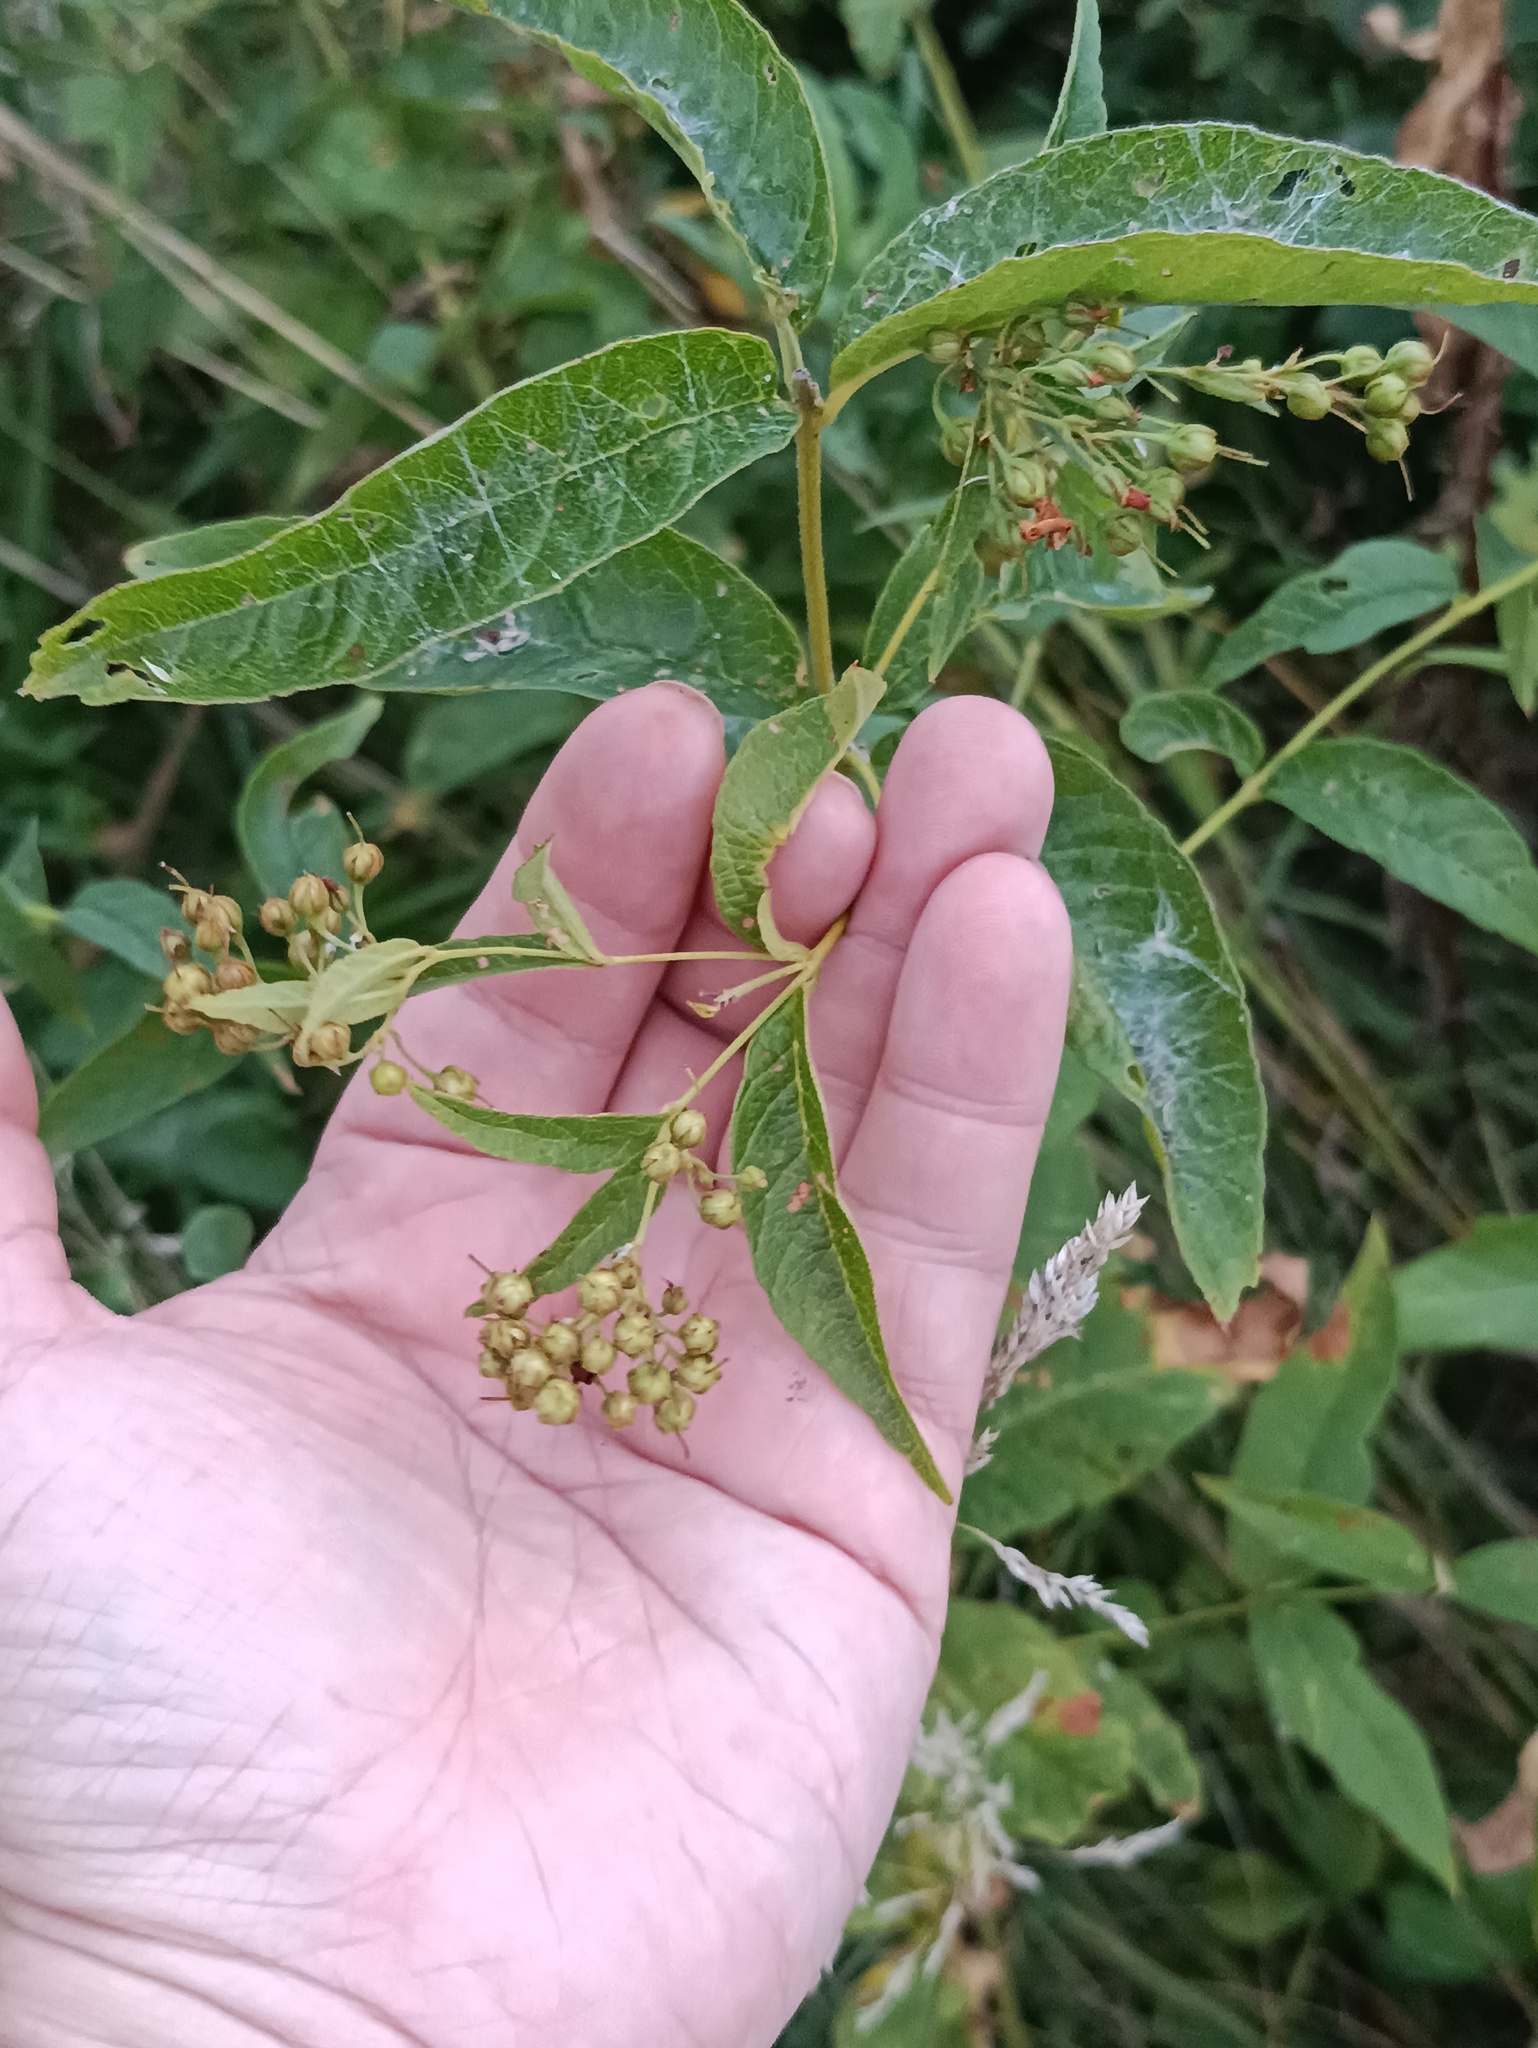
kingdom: Plantae
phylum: Tracheophyta
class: Magnoliopsida
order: Ericales
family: Primulaceae
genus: Lysimachia
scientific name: Lysimachia vulgaris
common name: Yellow loosestrife
